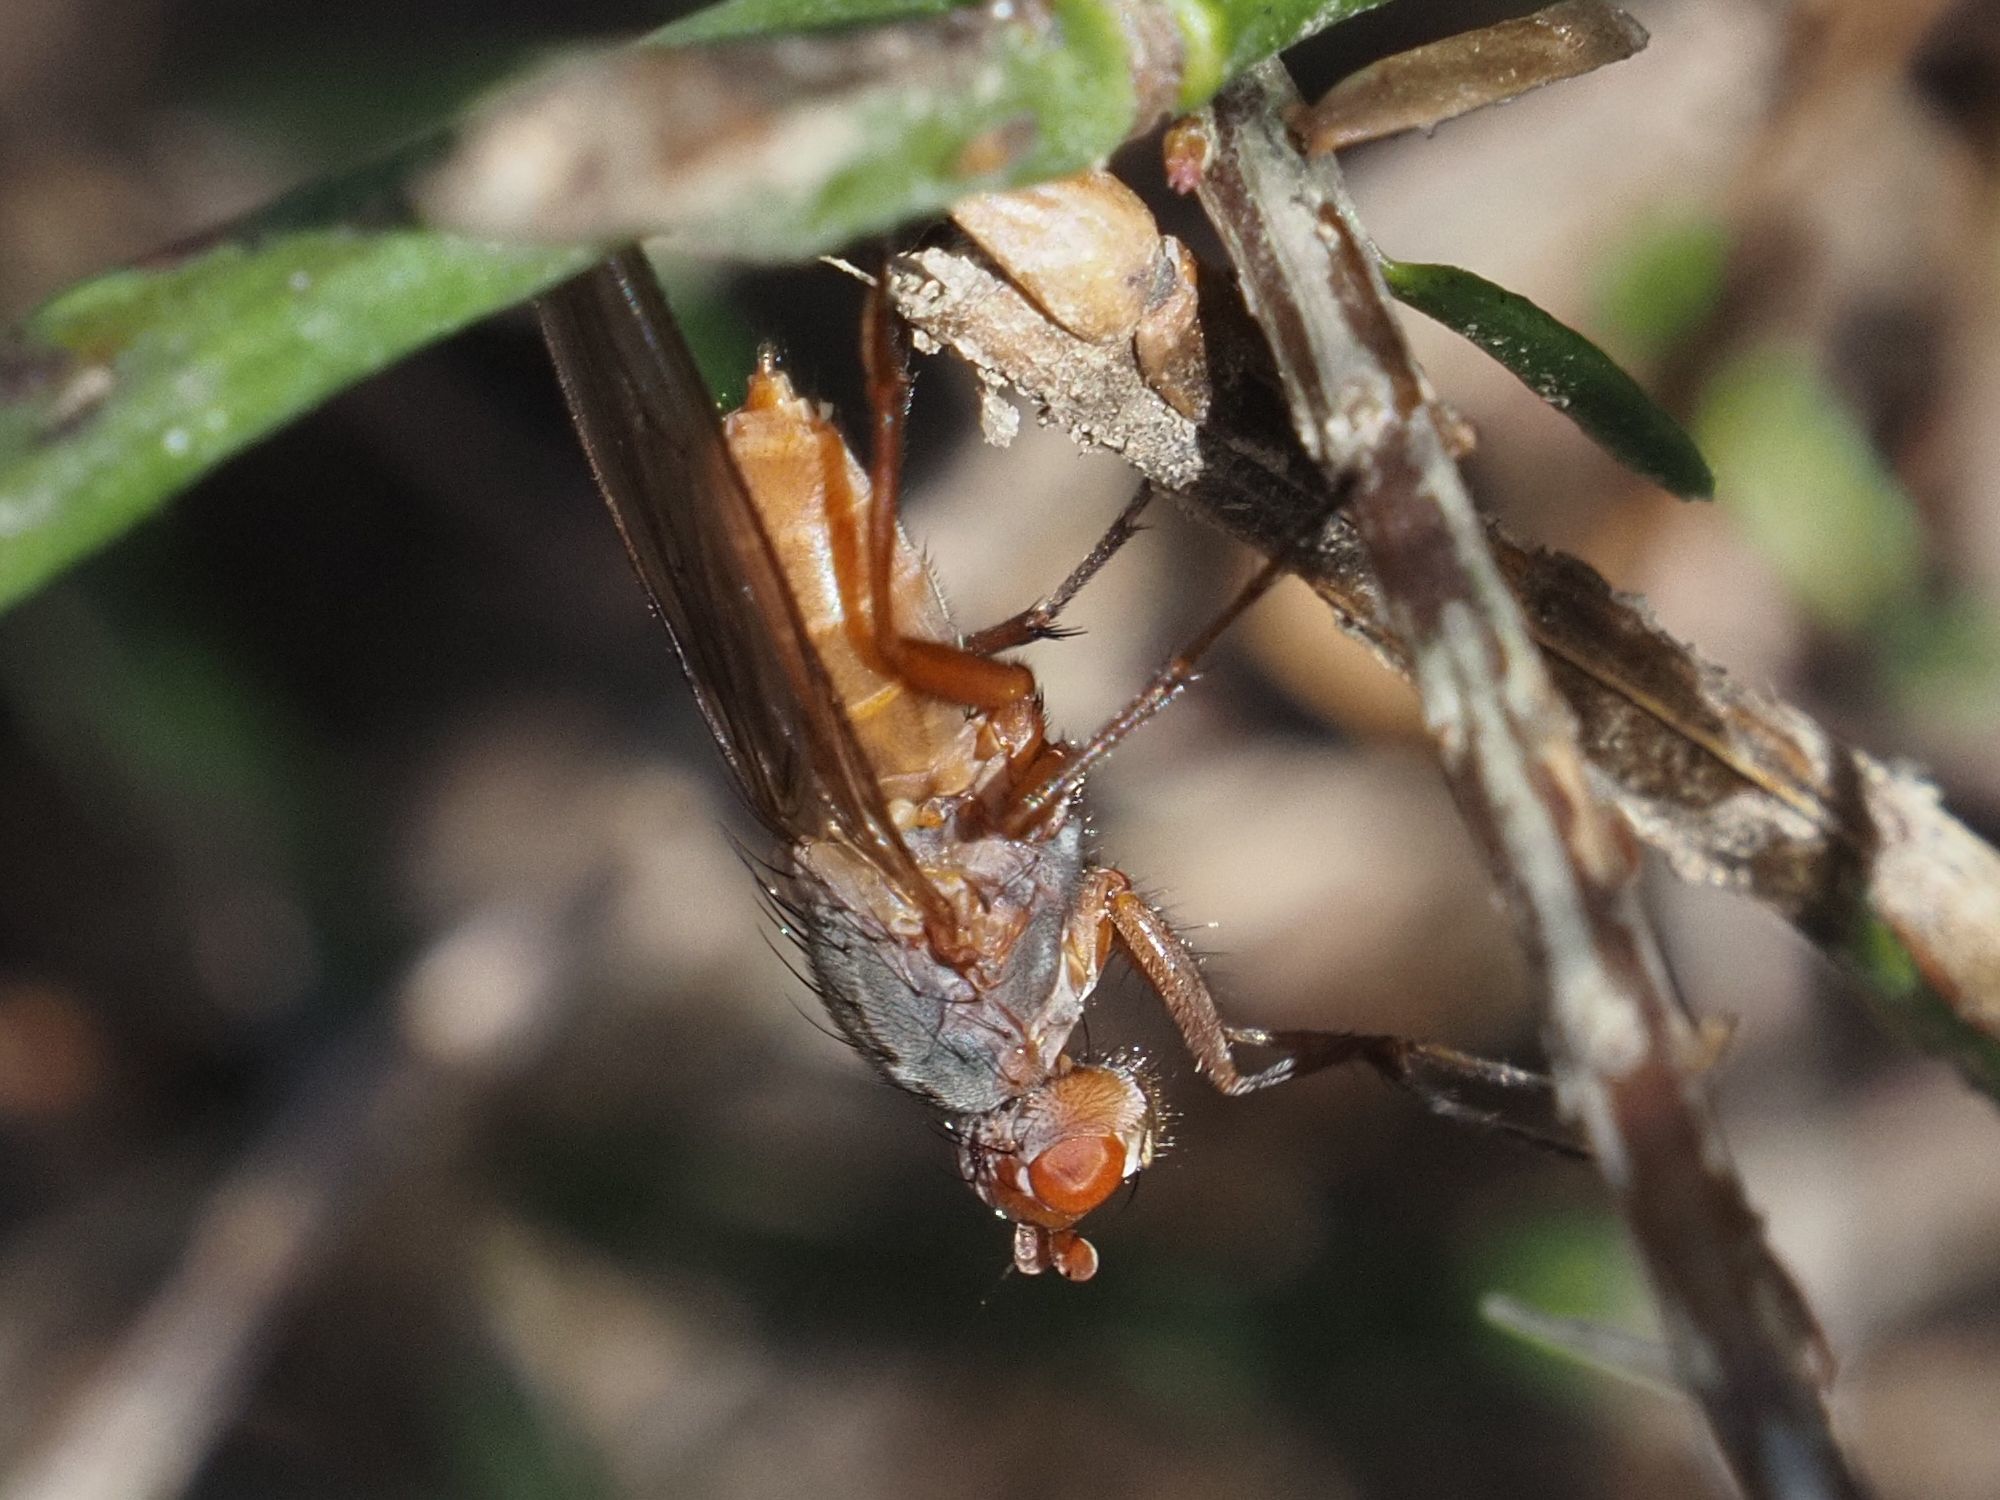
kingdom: Animalia
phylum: Arthropoda
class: Insecta
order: Diptera
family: Heleomyzidae
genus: Scoliocentra
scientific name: Scoliocentra villosa
